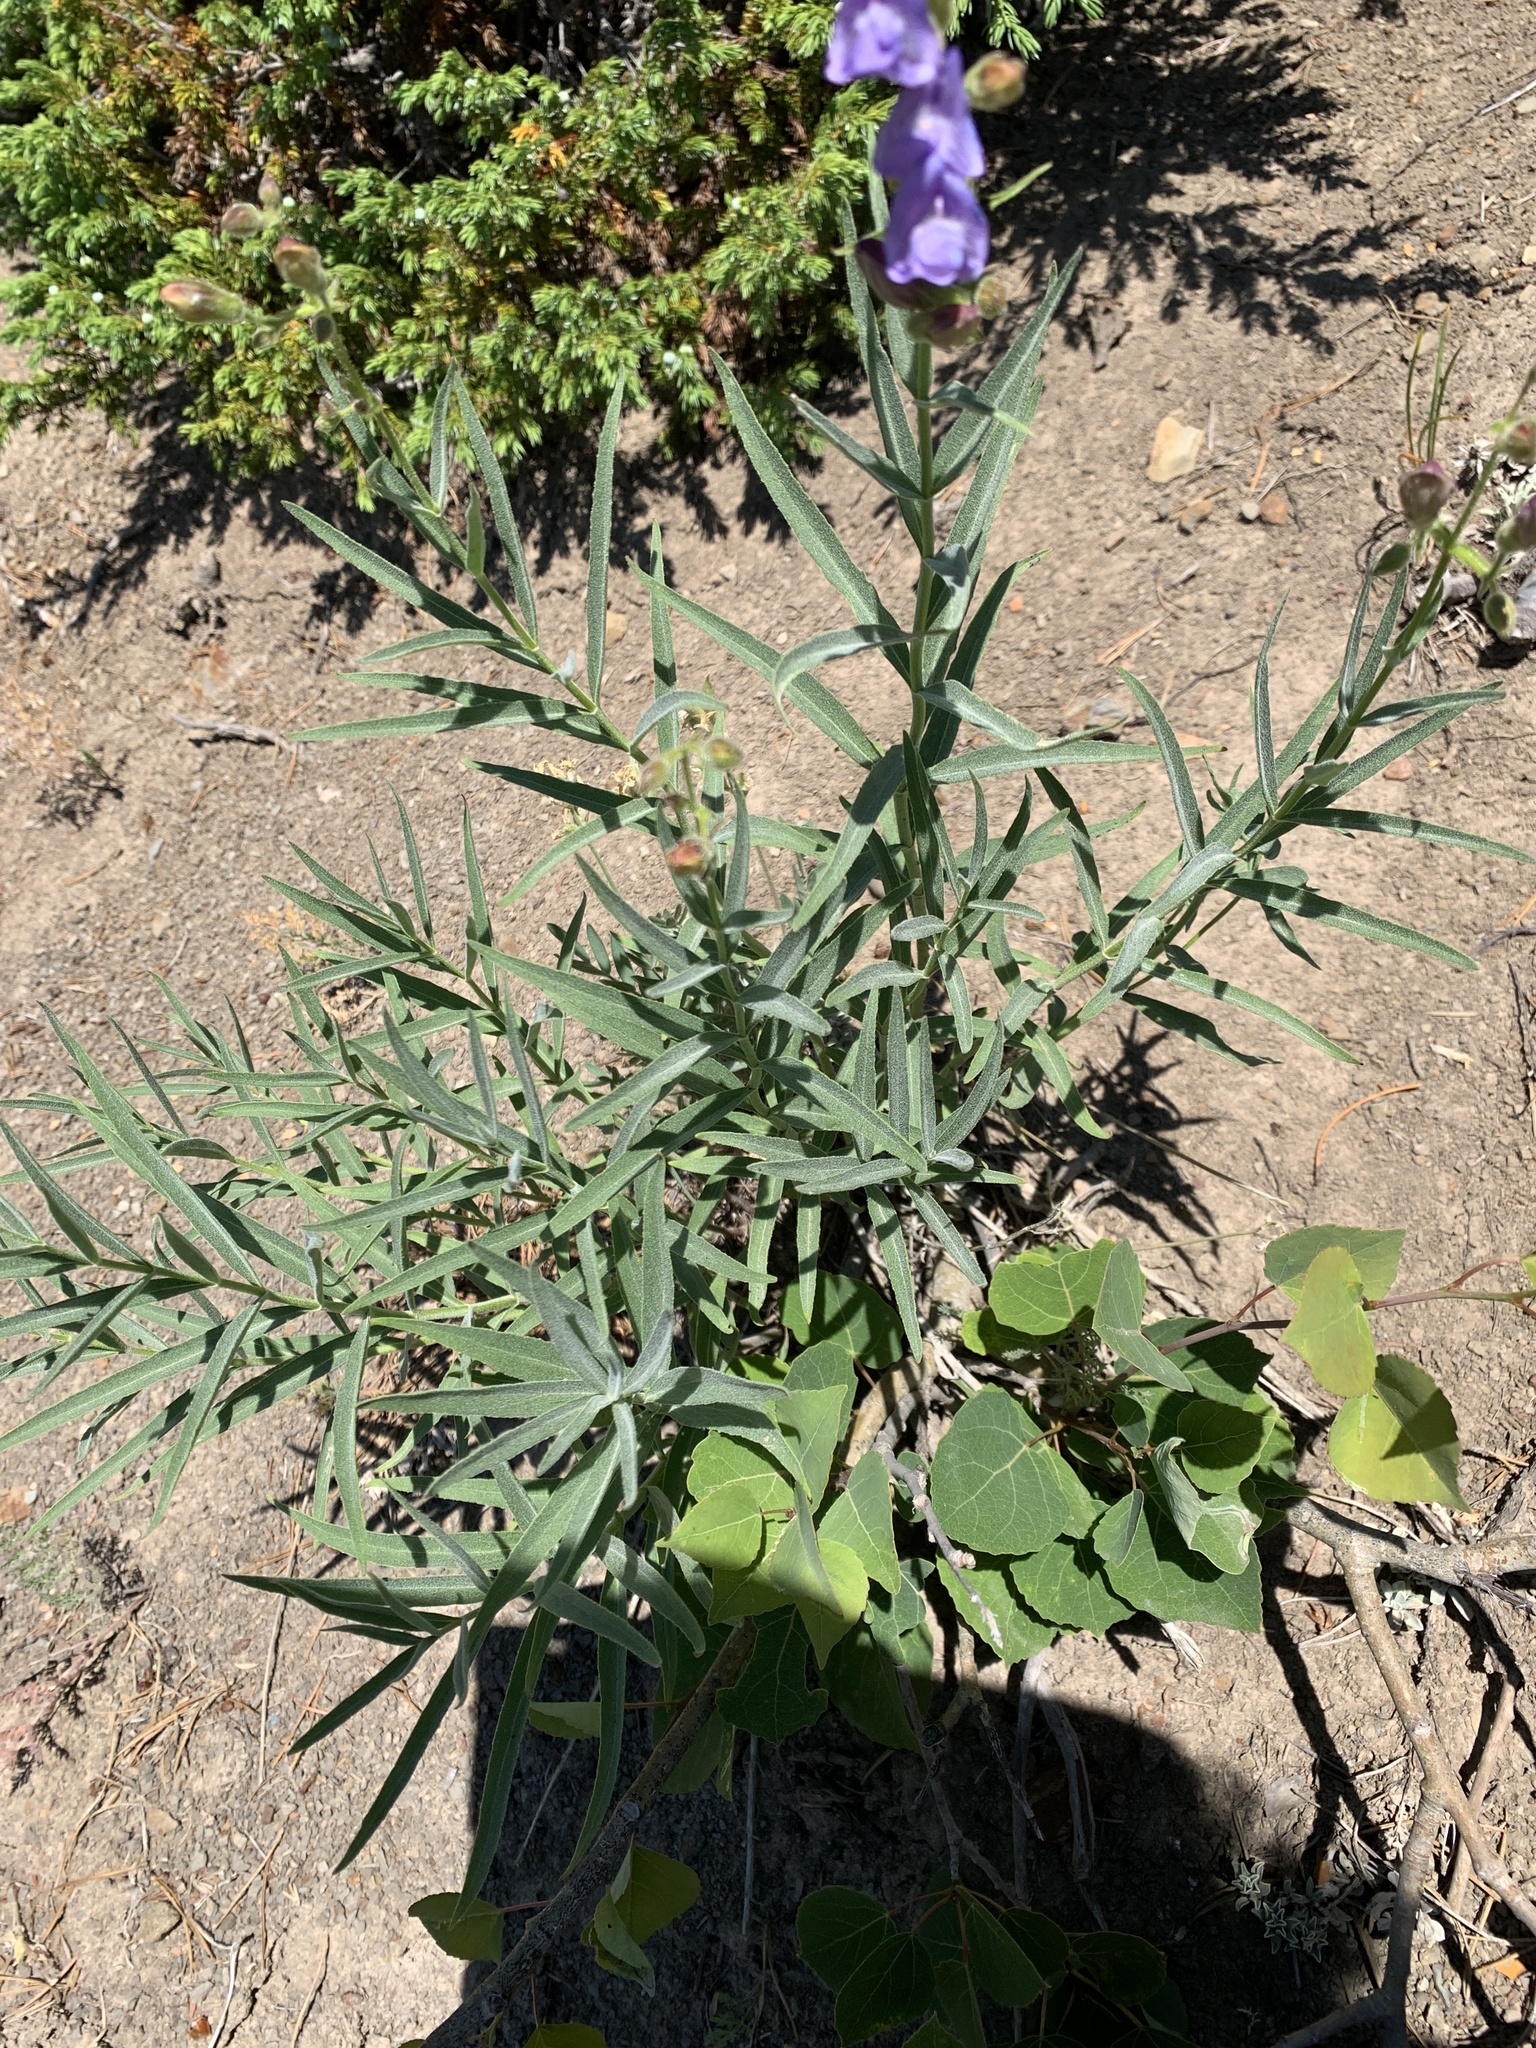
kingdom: Plantae
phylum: Tracheophyta
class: Magnoliopsida
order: Lamiales
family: Plantaginaceae
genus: Penstemon
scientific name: Penstemon lyalli
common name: Lyall's beardtongue
